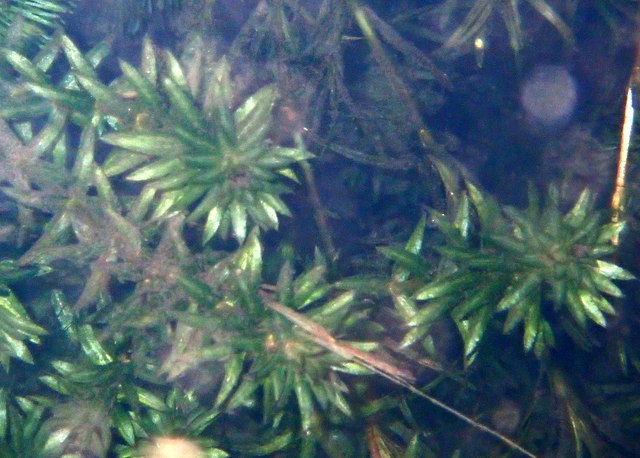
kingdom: Plantae
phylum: Tracheophyta
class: Liliopsida
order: Alismatales
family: Hydrocharitaceae
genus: Hydrilla
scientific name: Hydrilla verticillata
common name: Florida-elodea
